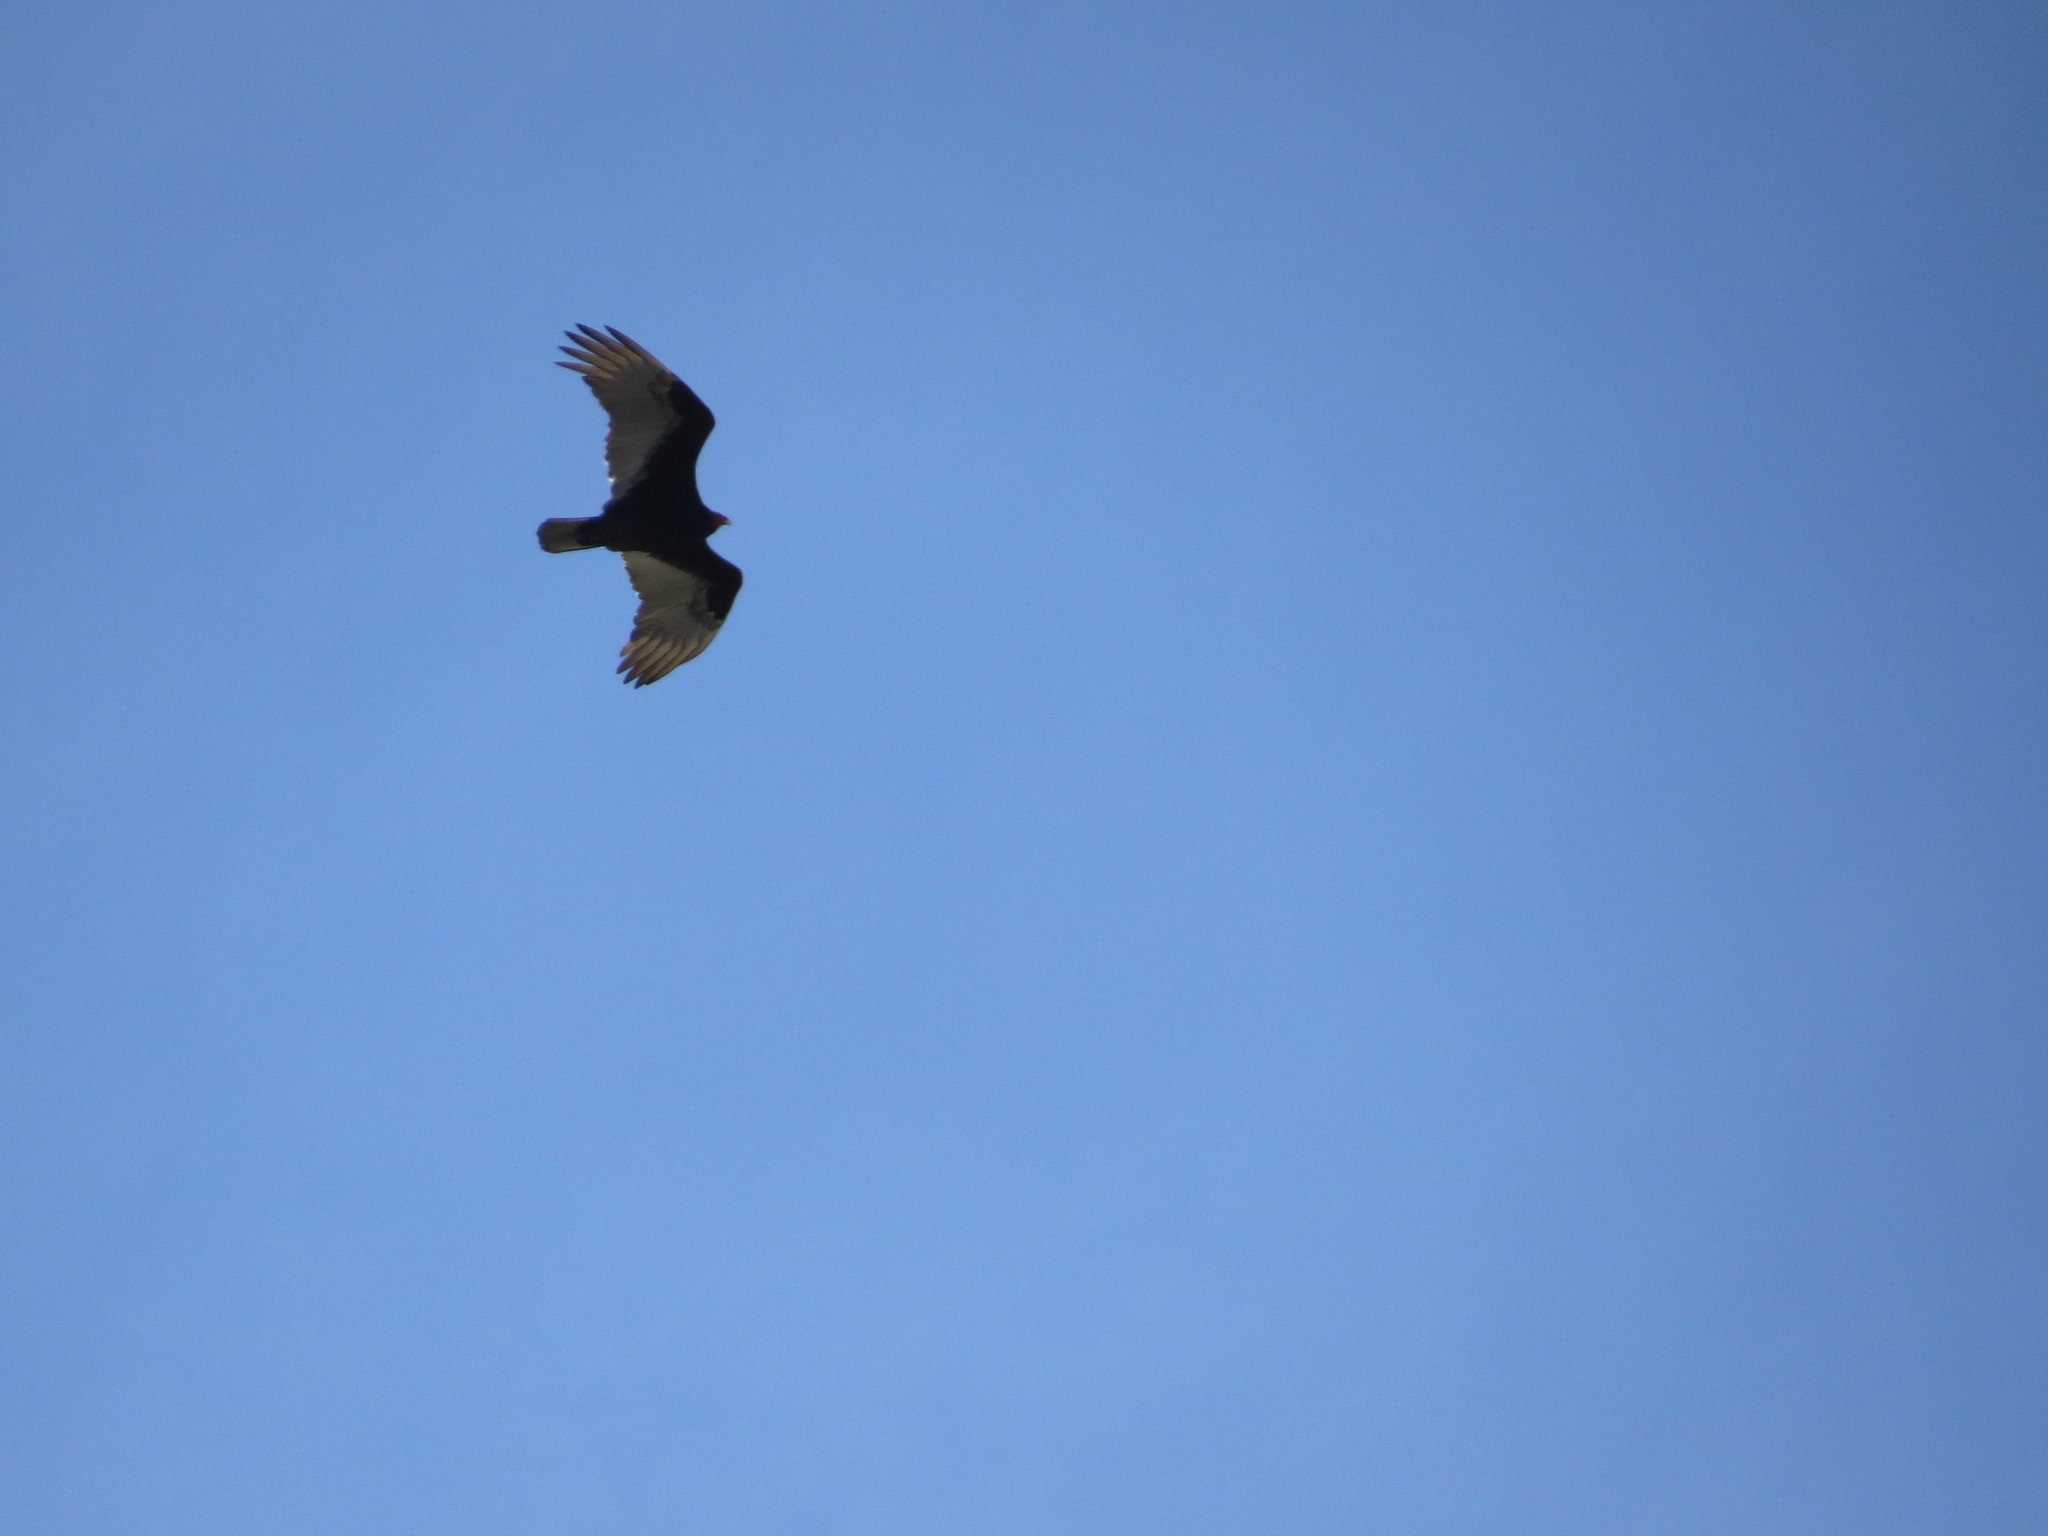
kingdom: Animalia
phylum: Chordata
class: Aves
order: Accipitriformes
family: Cathartidae
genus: Cathartes
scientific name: Cathartes aura
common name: Turkey vulture
